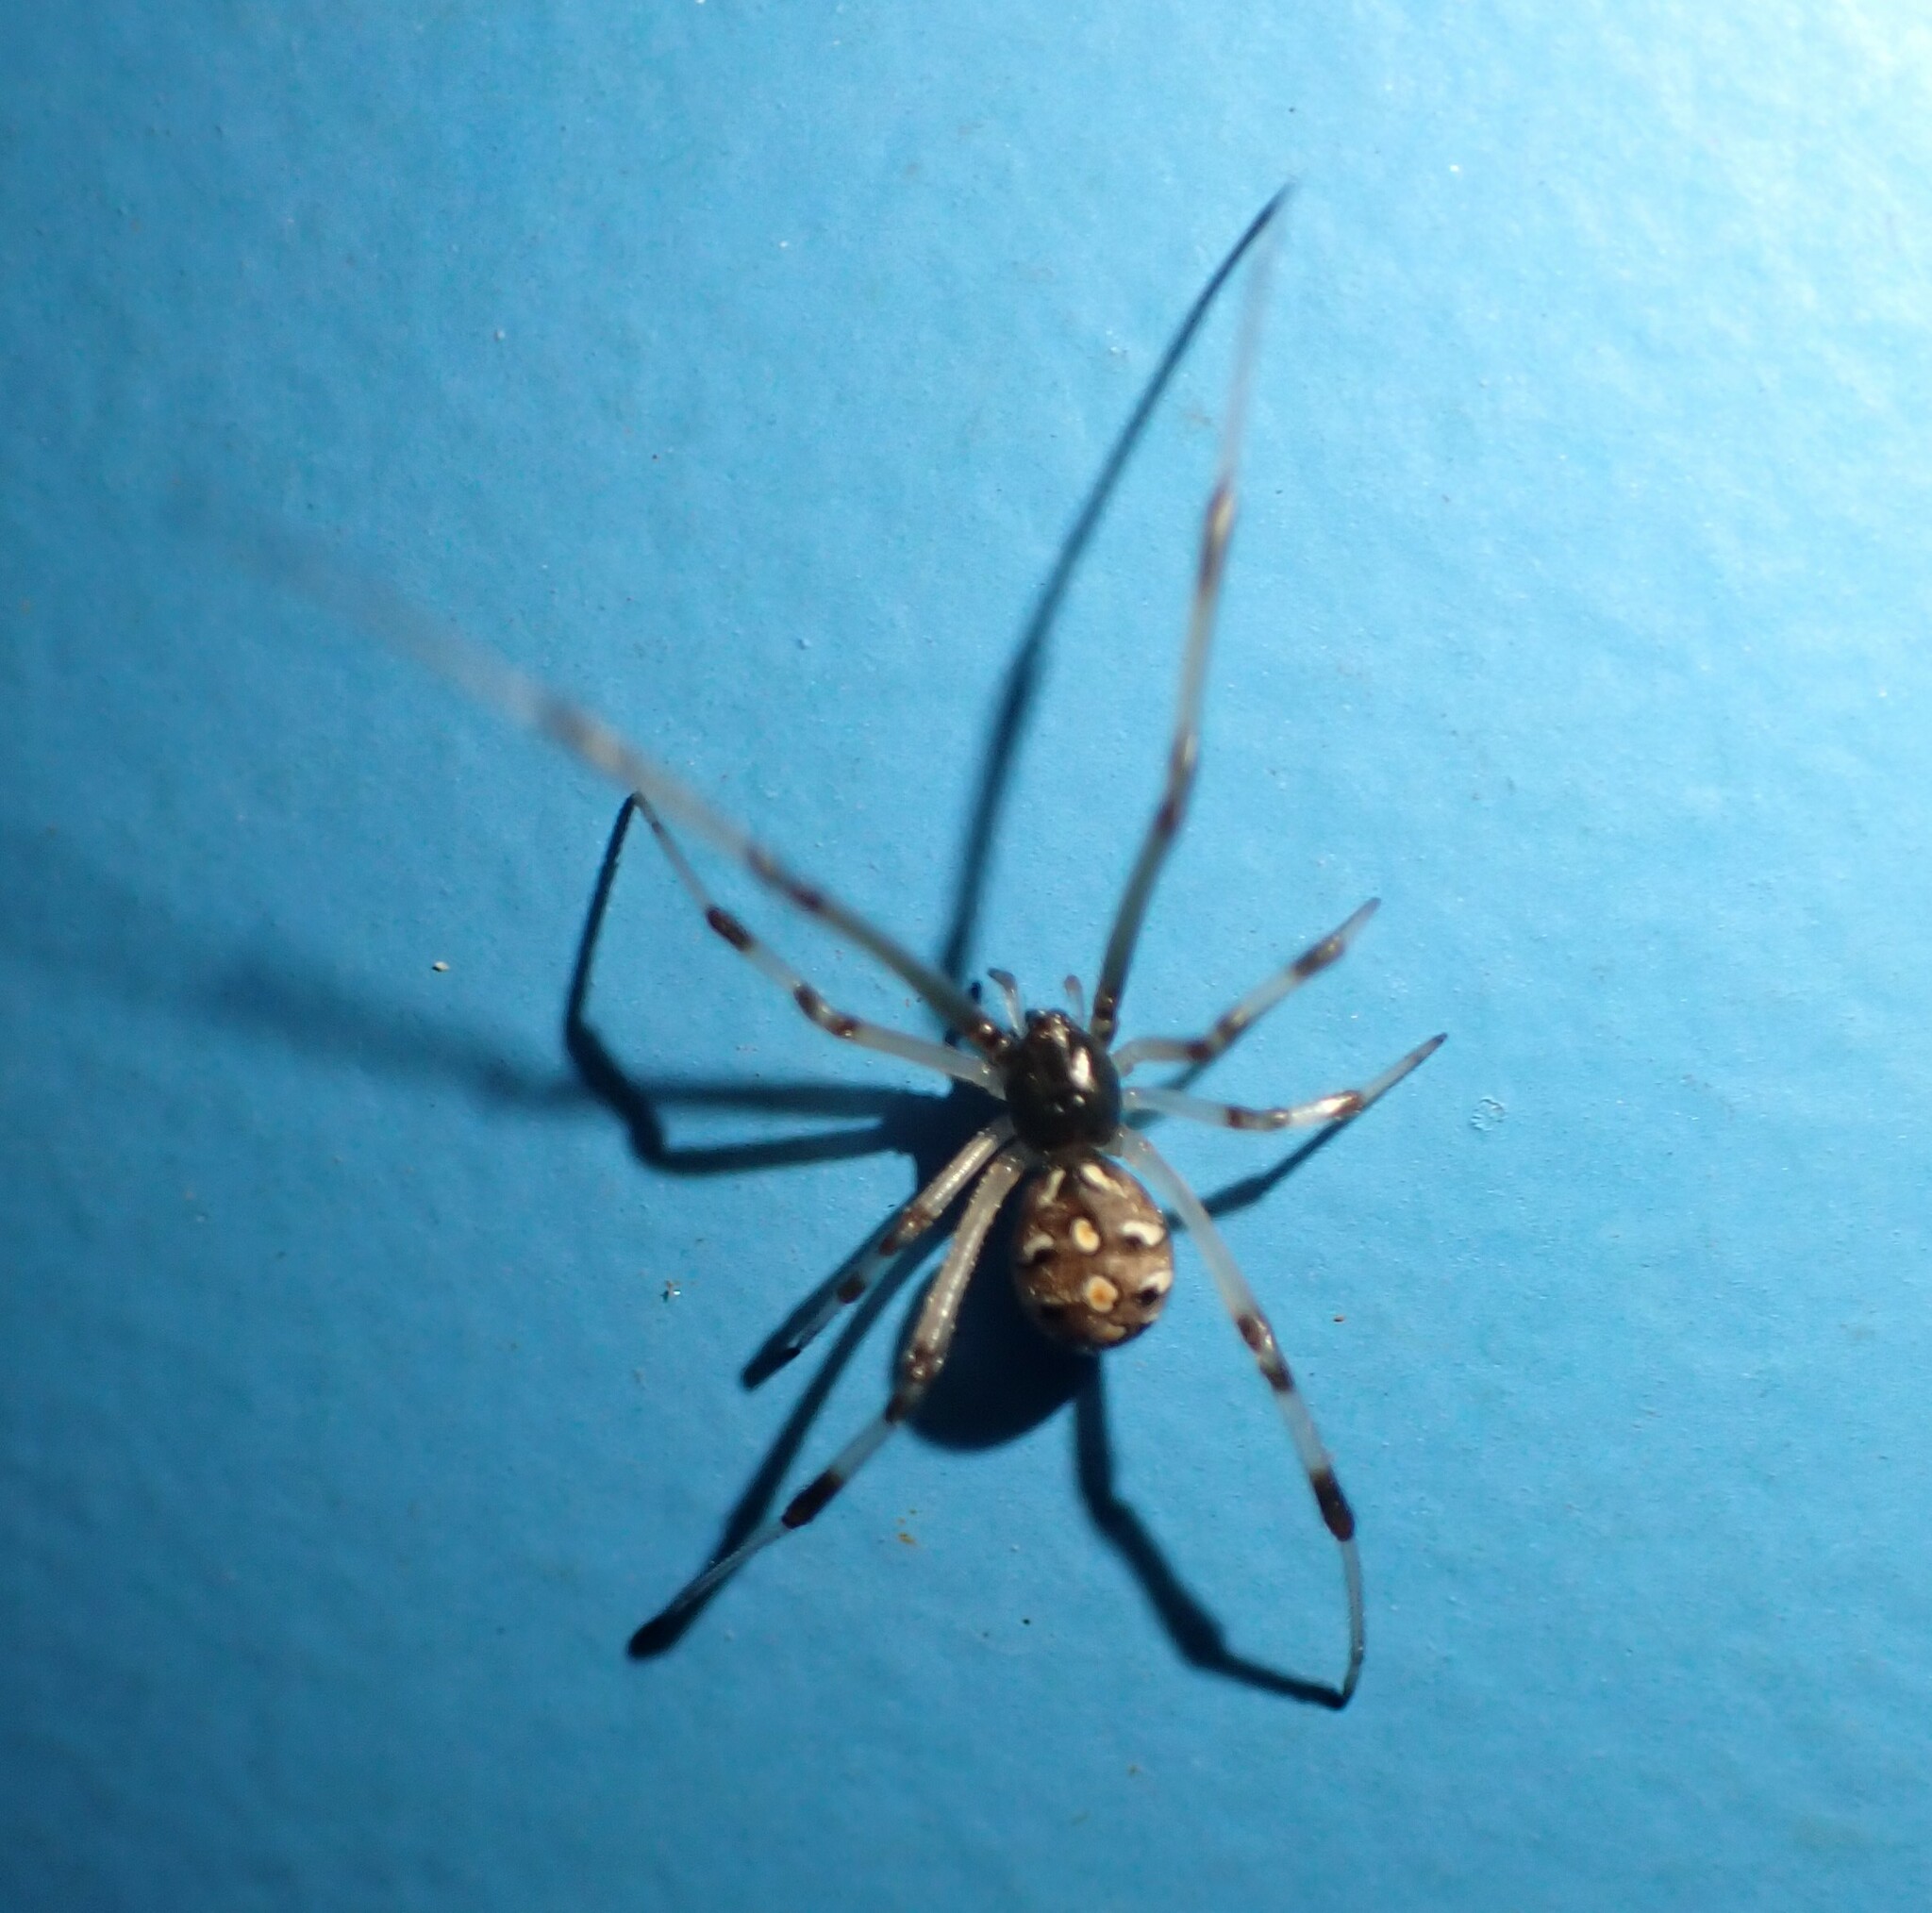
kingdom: Animalia
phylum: Arthropoda
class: Arachnida
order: Araneae
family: Theridiidae
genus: Latrodectus
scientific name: Latrodectus geometricus
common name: Brown widow spider
